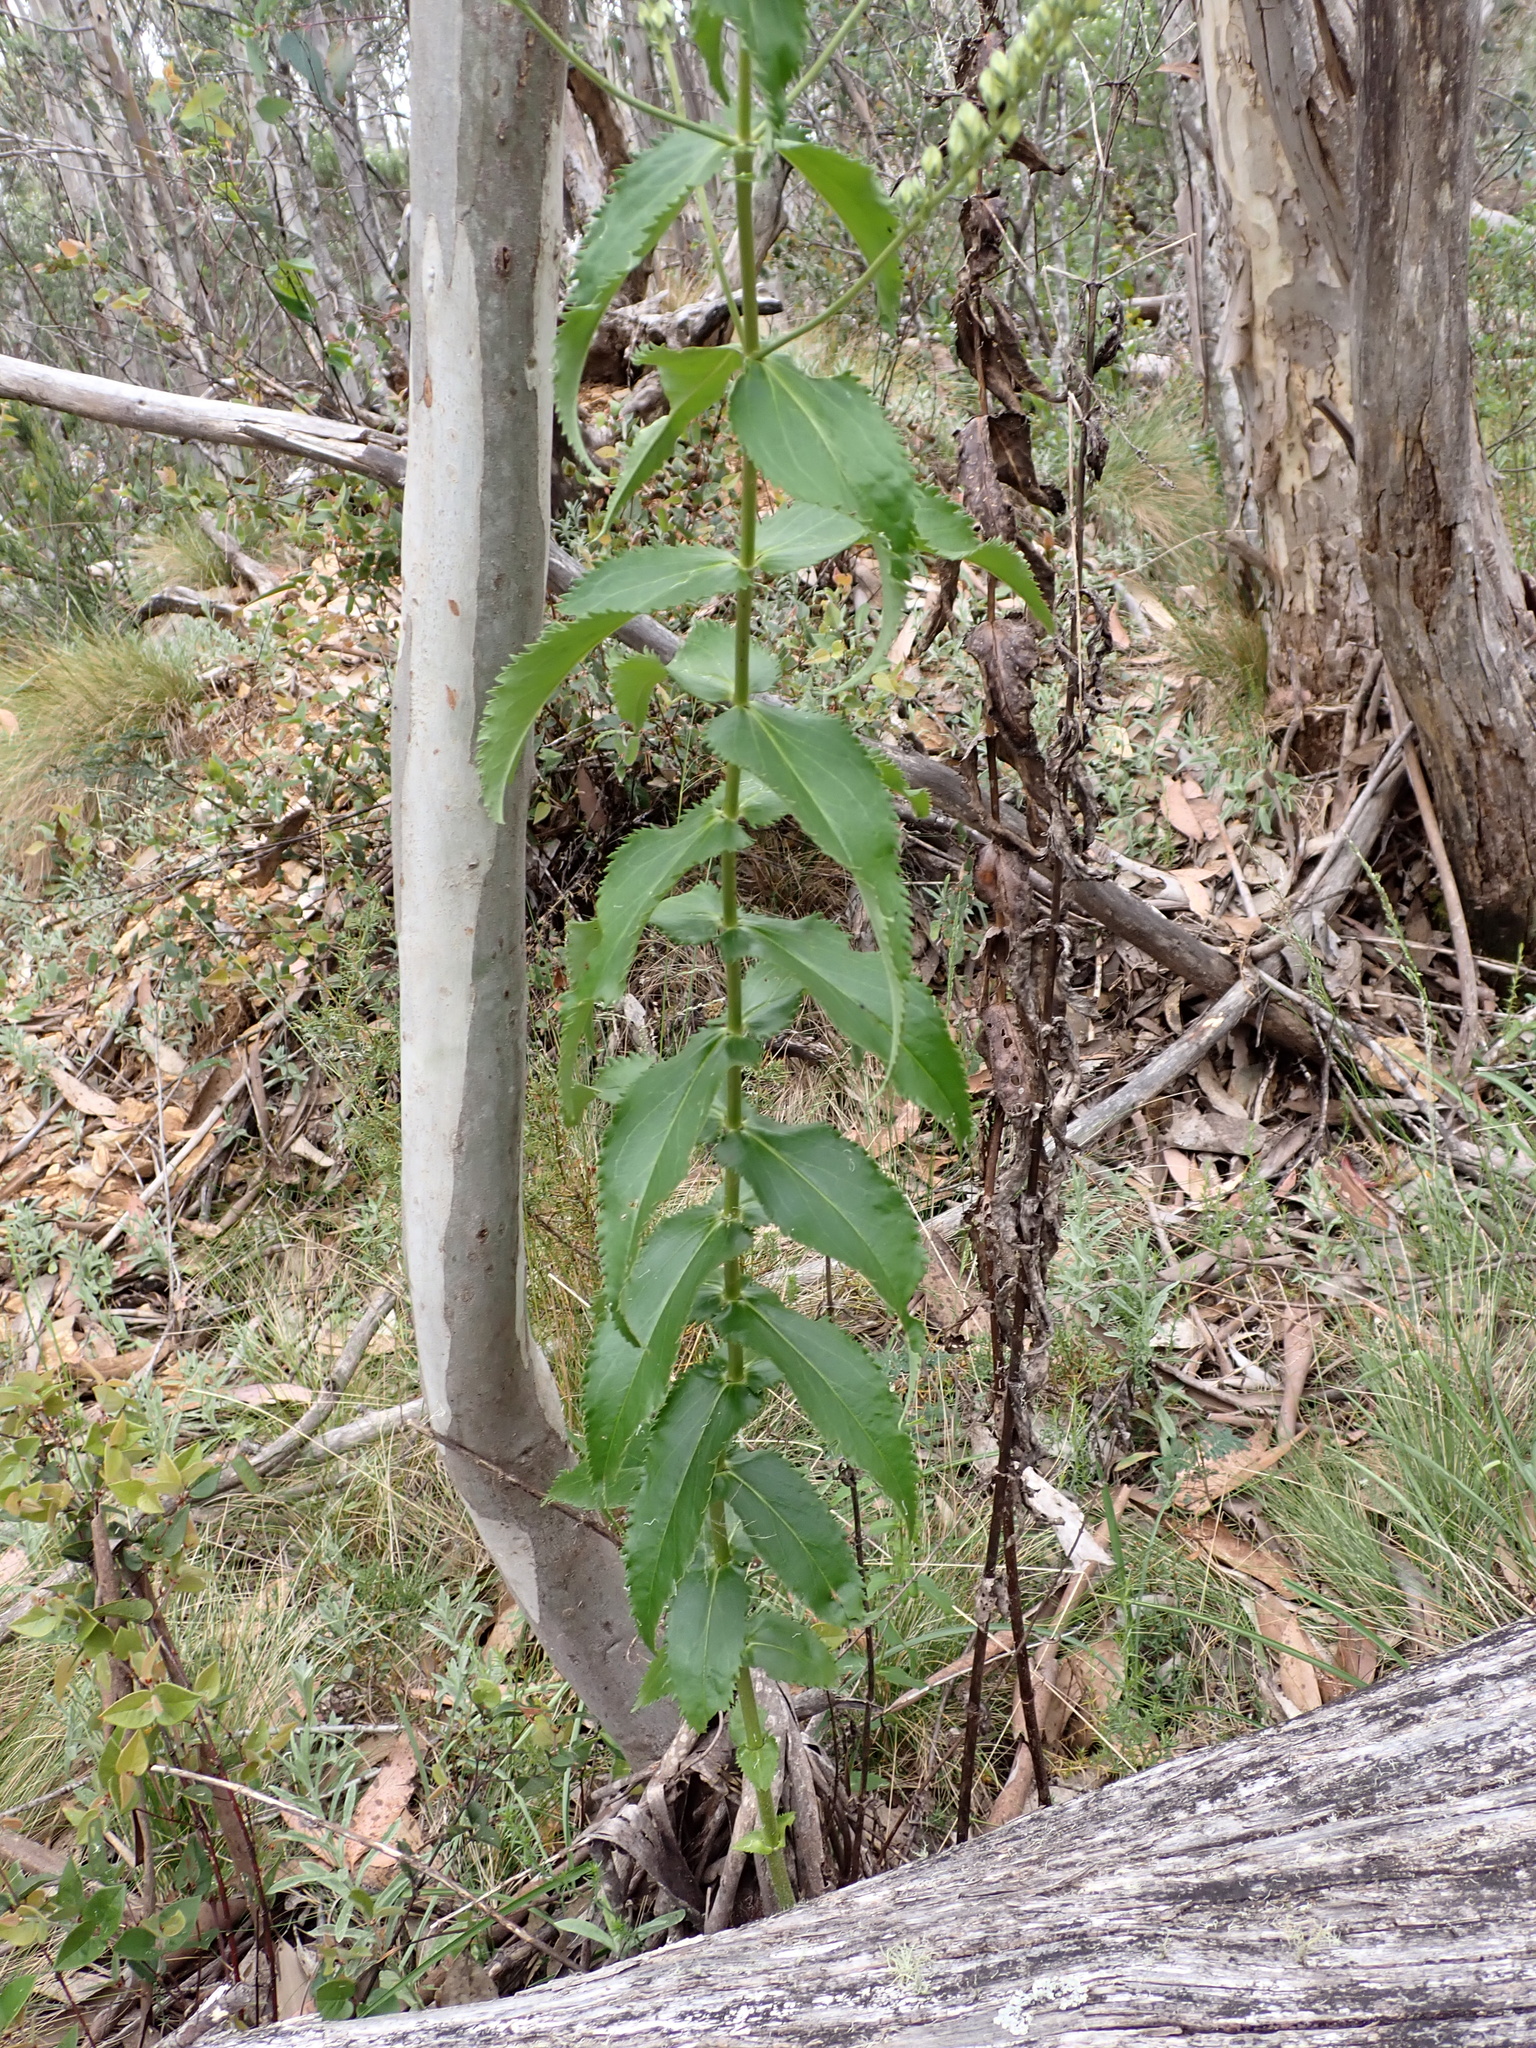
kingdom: Plantae
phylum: Tracheophyta
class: Magnoliopsida
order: Lamiales
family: Plantaginaceae
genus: Veronica
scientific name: Veronica derwentiana
